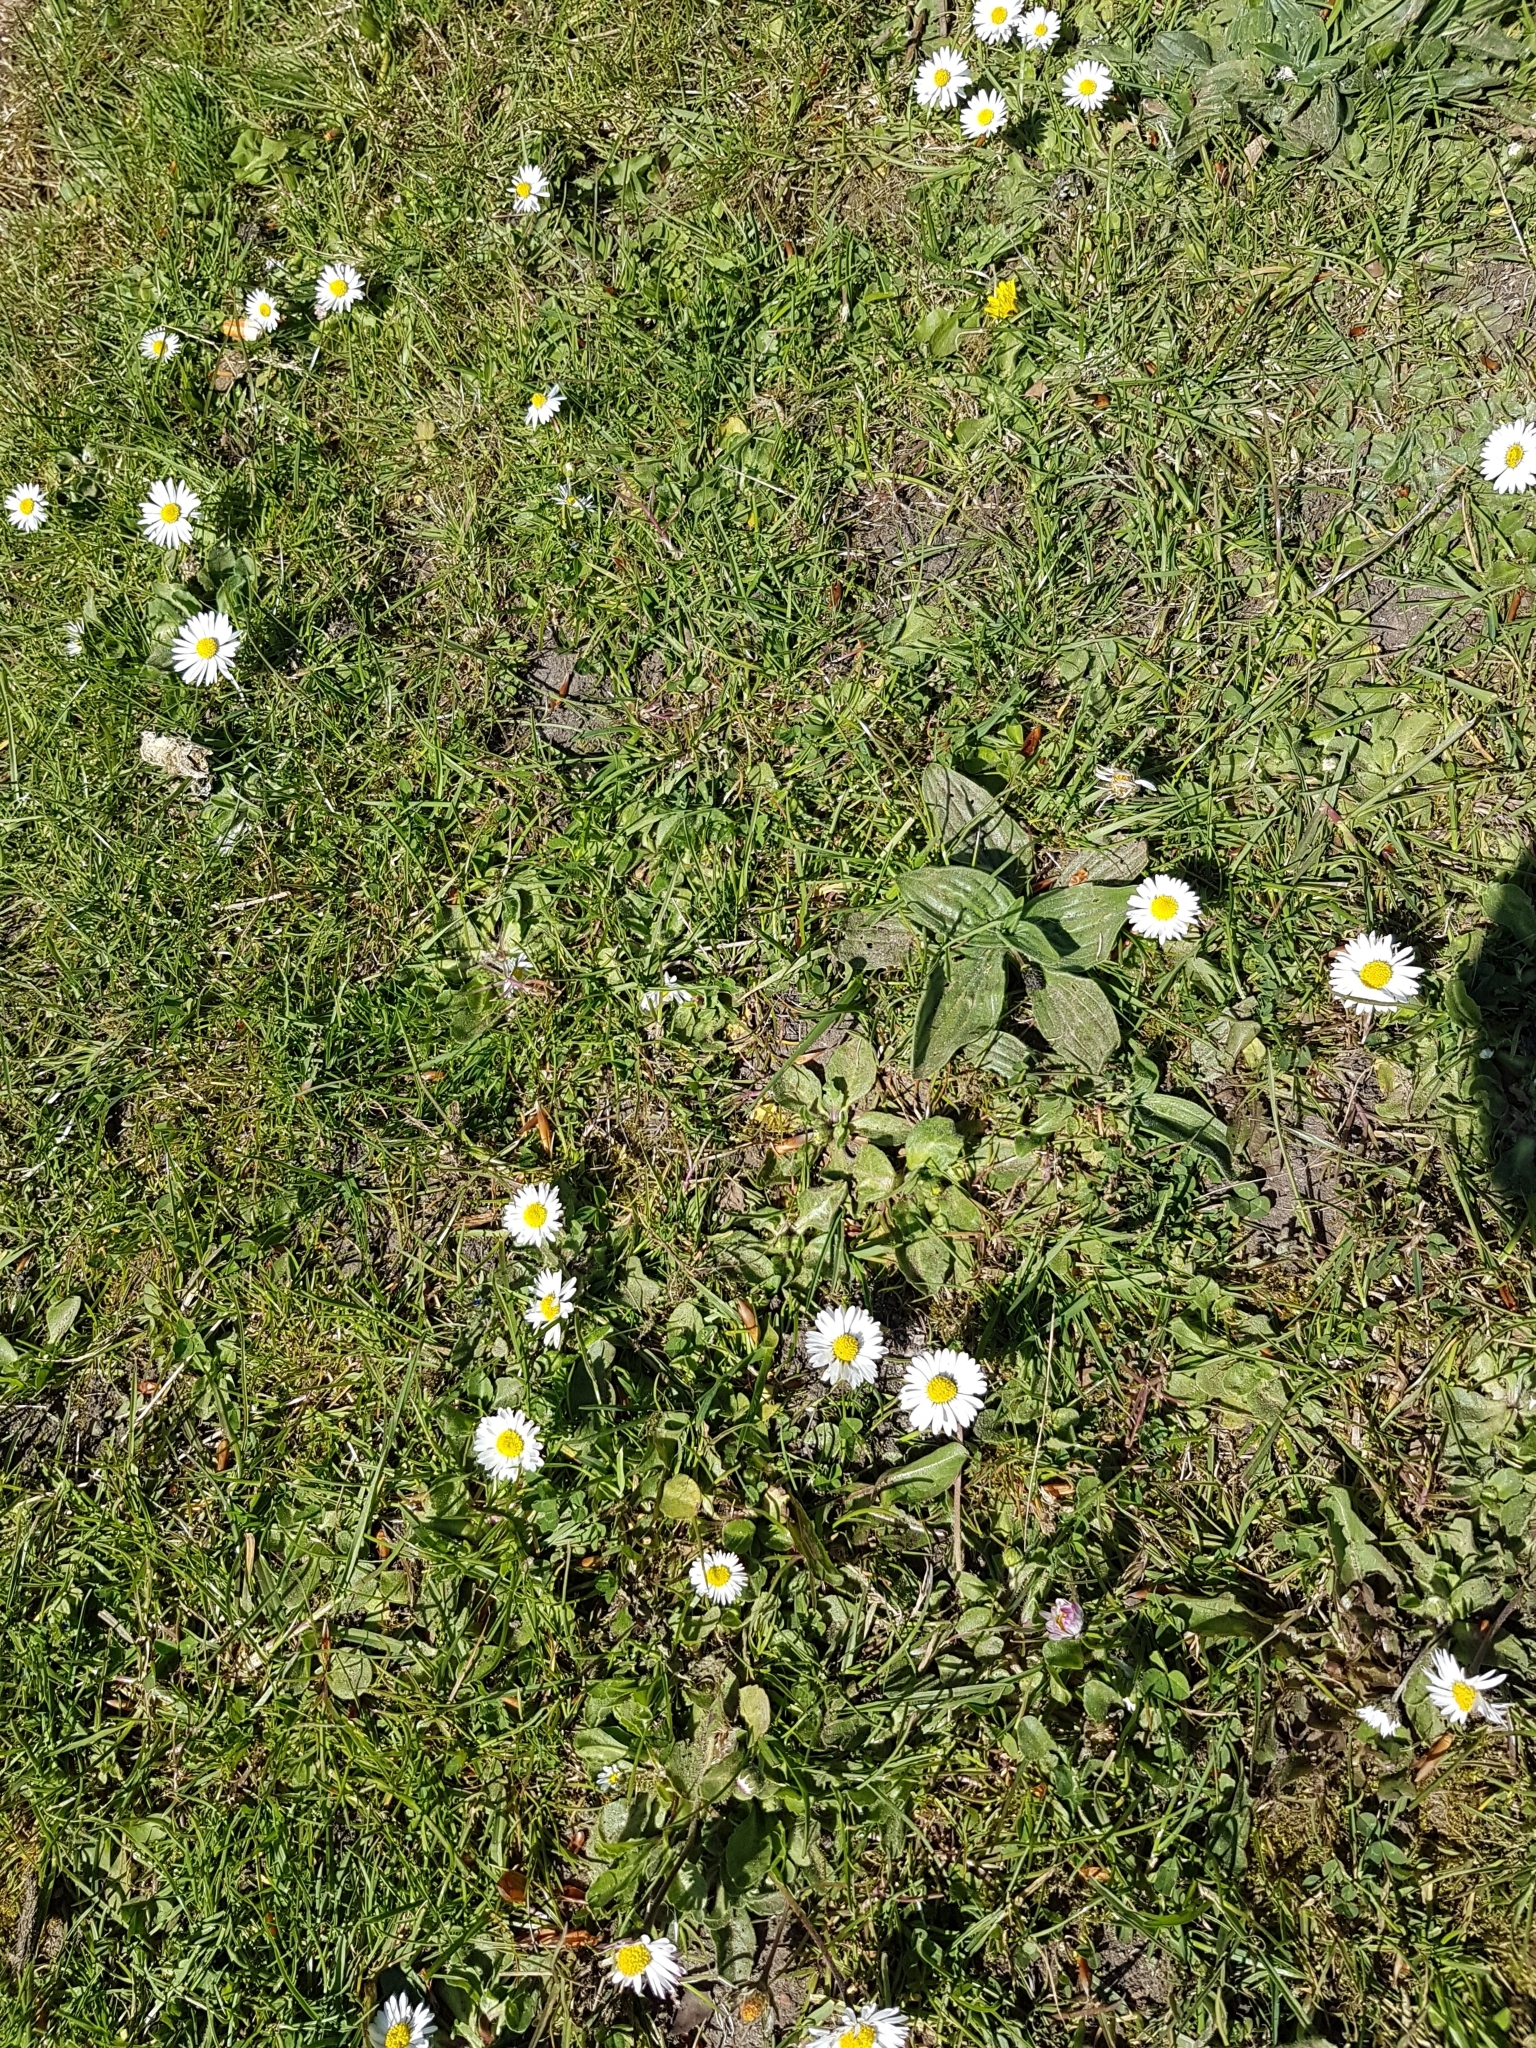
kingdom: Plantae
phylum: Tracheophyta
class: Magnoliopsida
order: Asterales
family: Asteraceae
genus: Bellis
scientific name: Bellis perennis
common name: Lawndaisy
